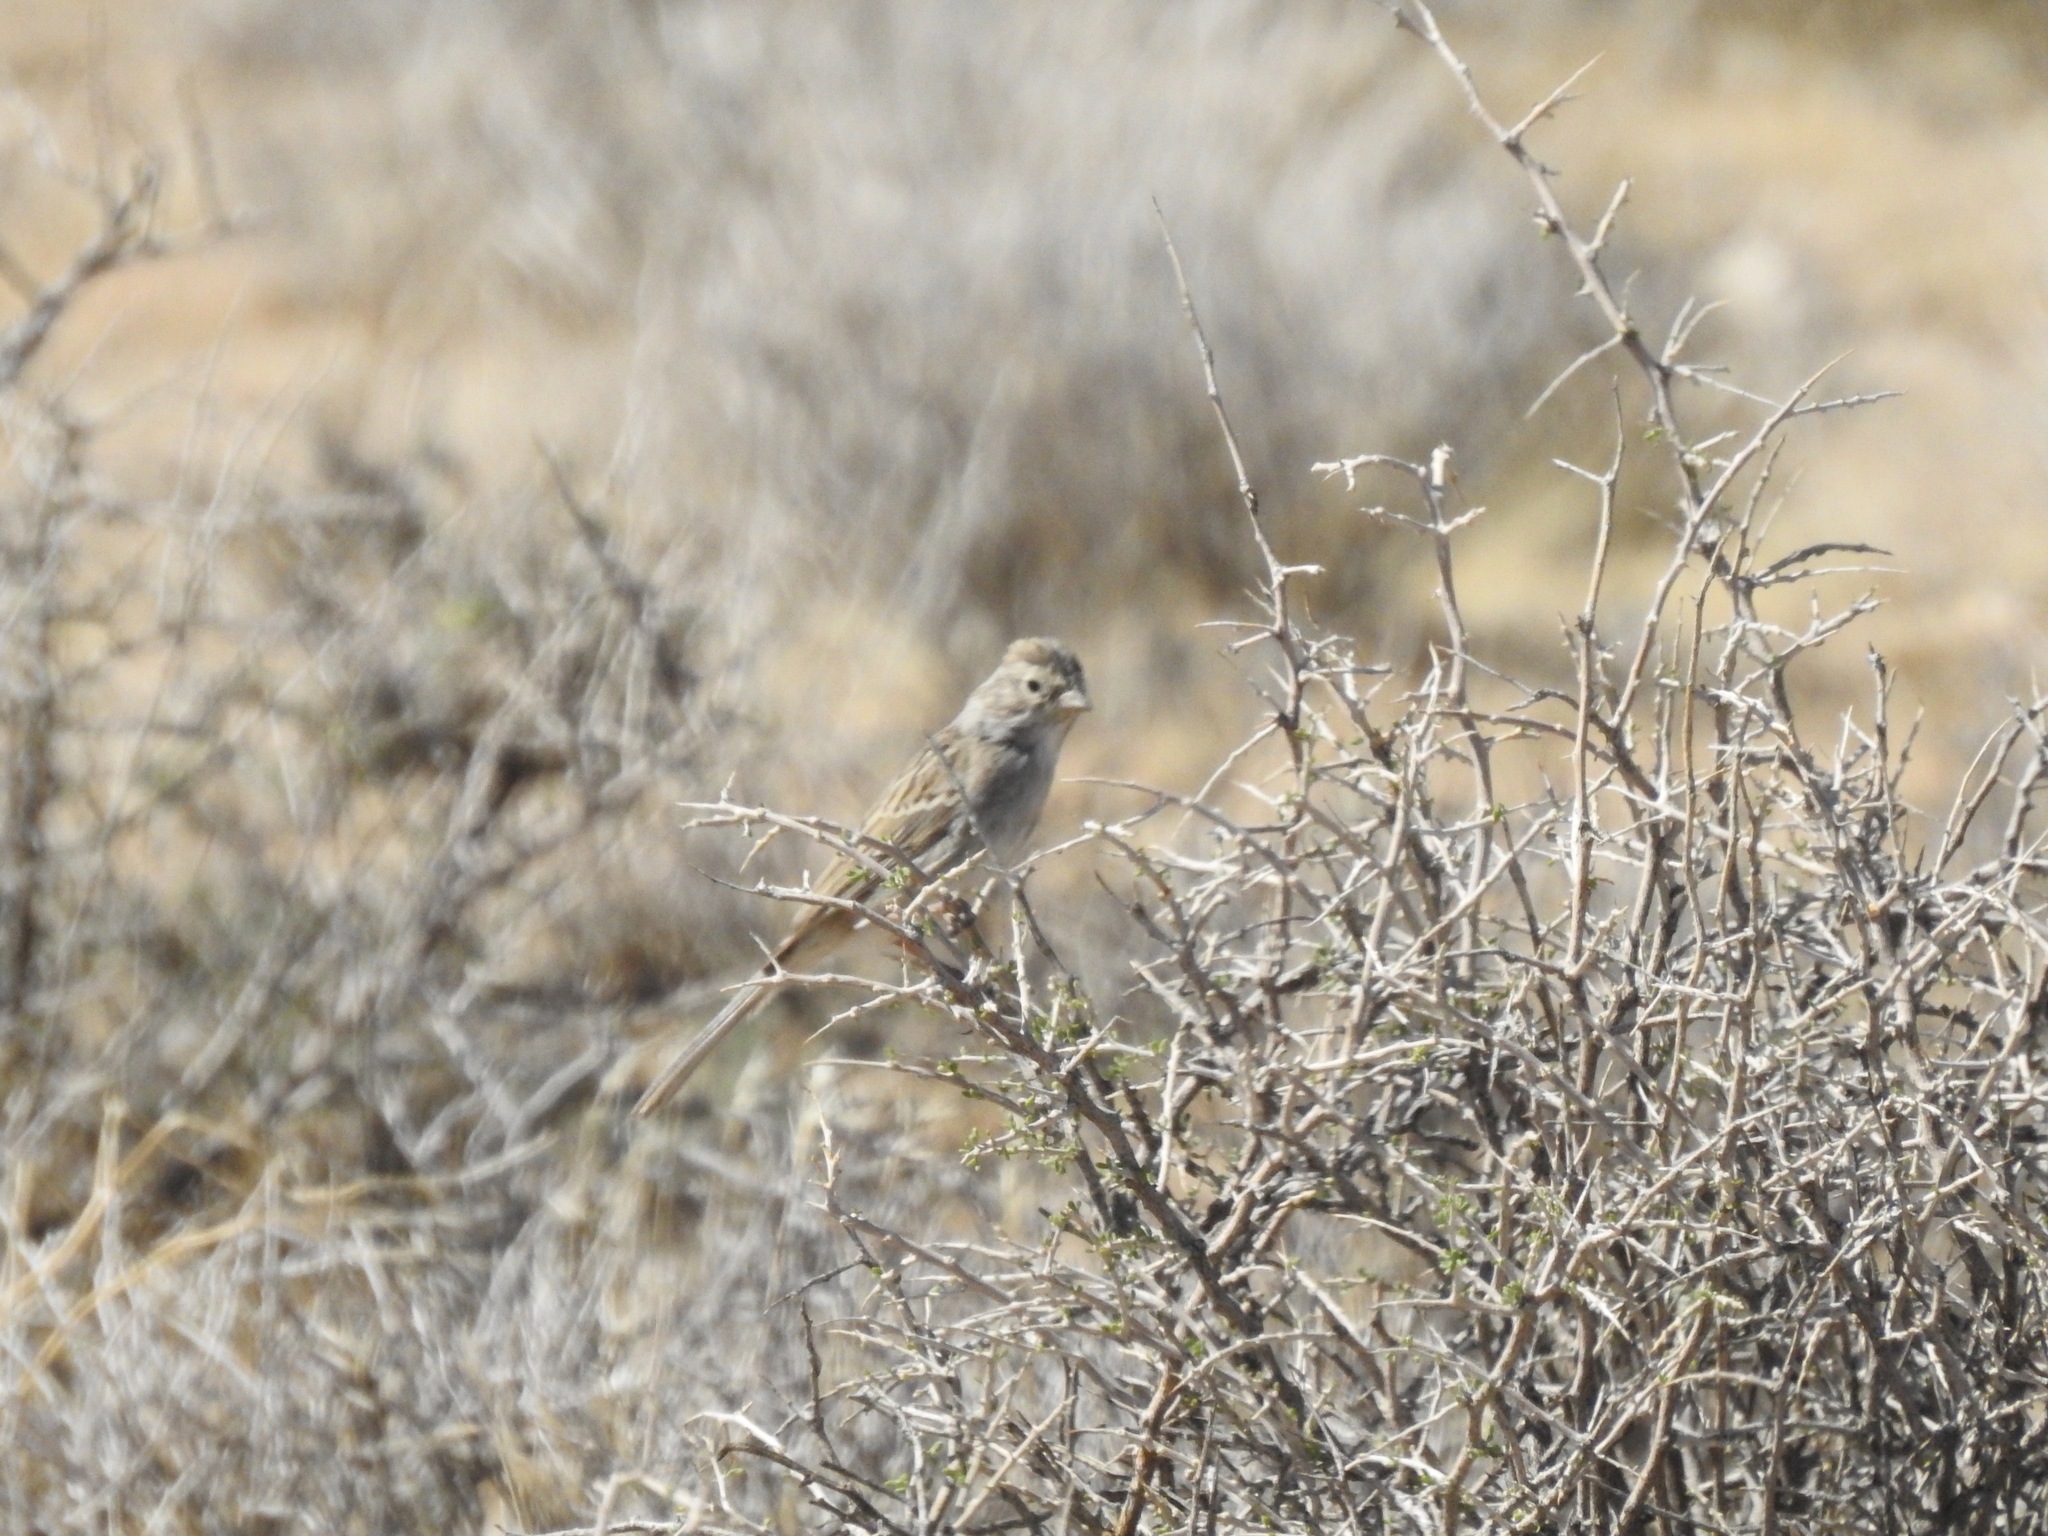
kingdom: Animalia
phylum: Chordata
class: Aves
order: Passeriformes
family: Passerellidae
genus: Spizella
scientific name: Spizella breweri
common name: Brewer's sparrow
